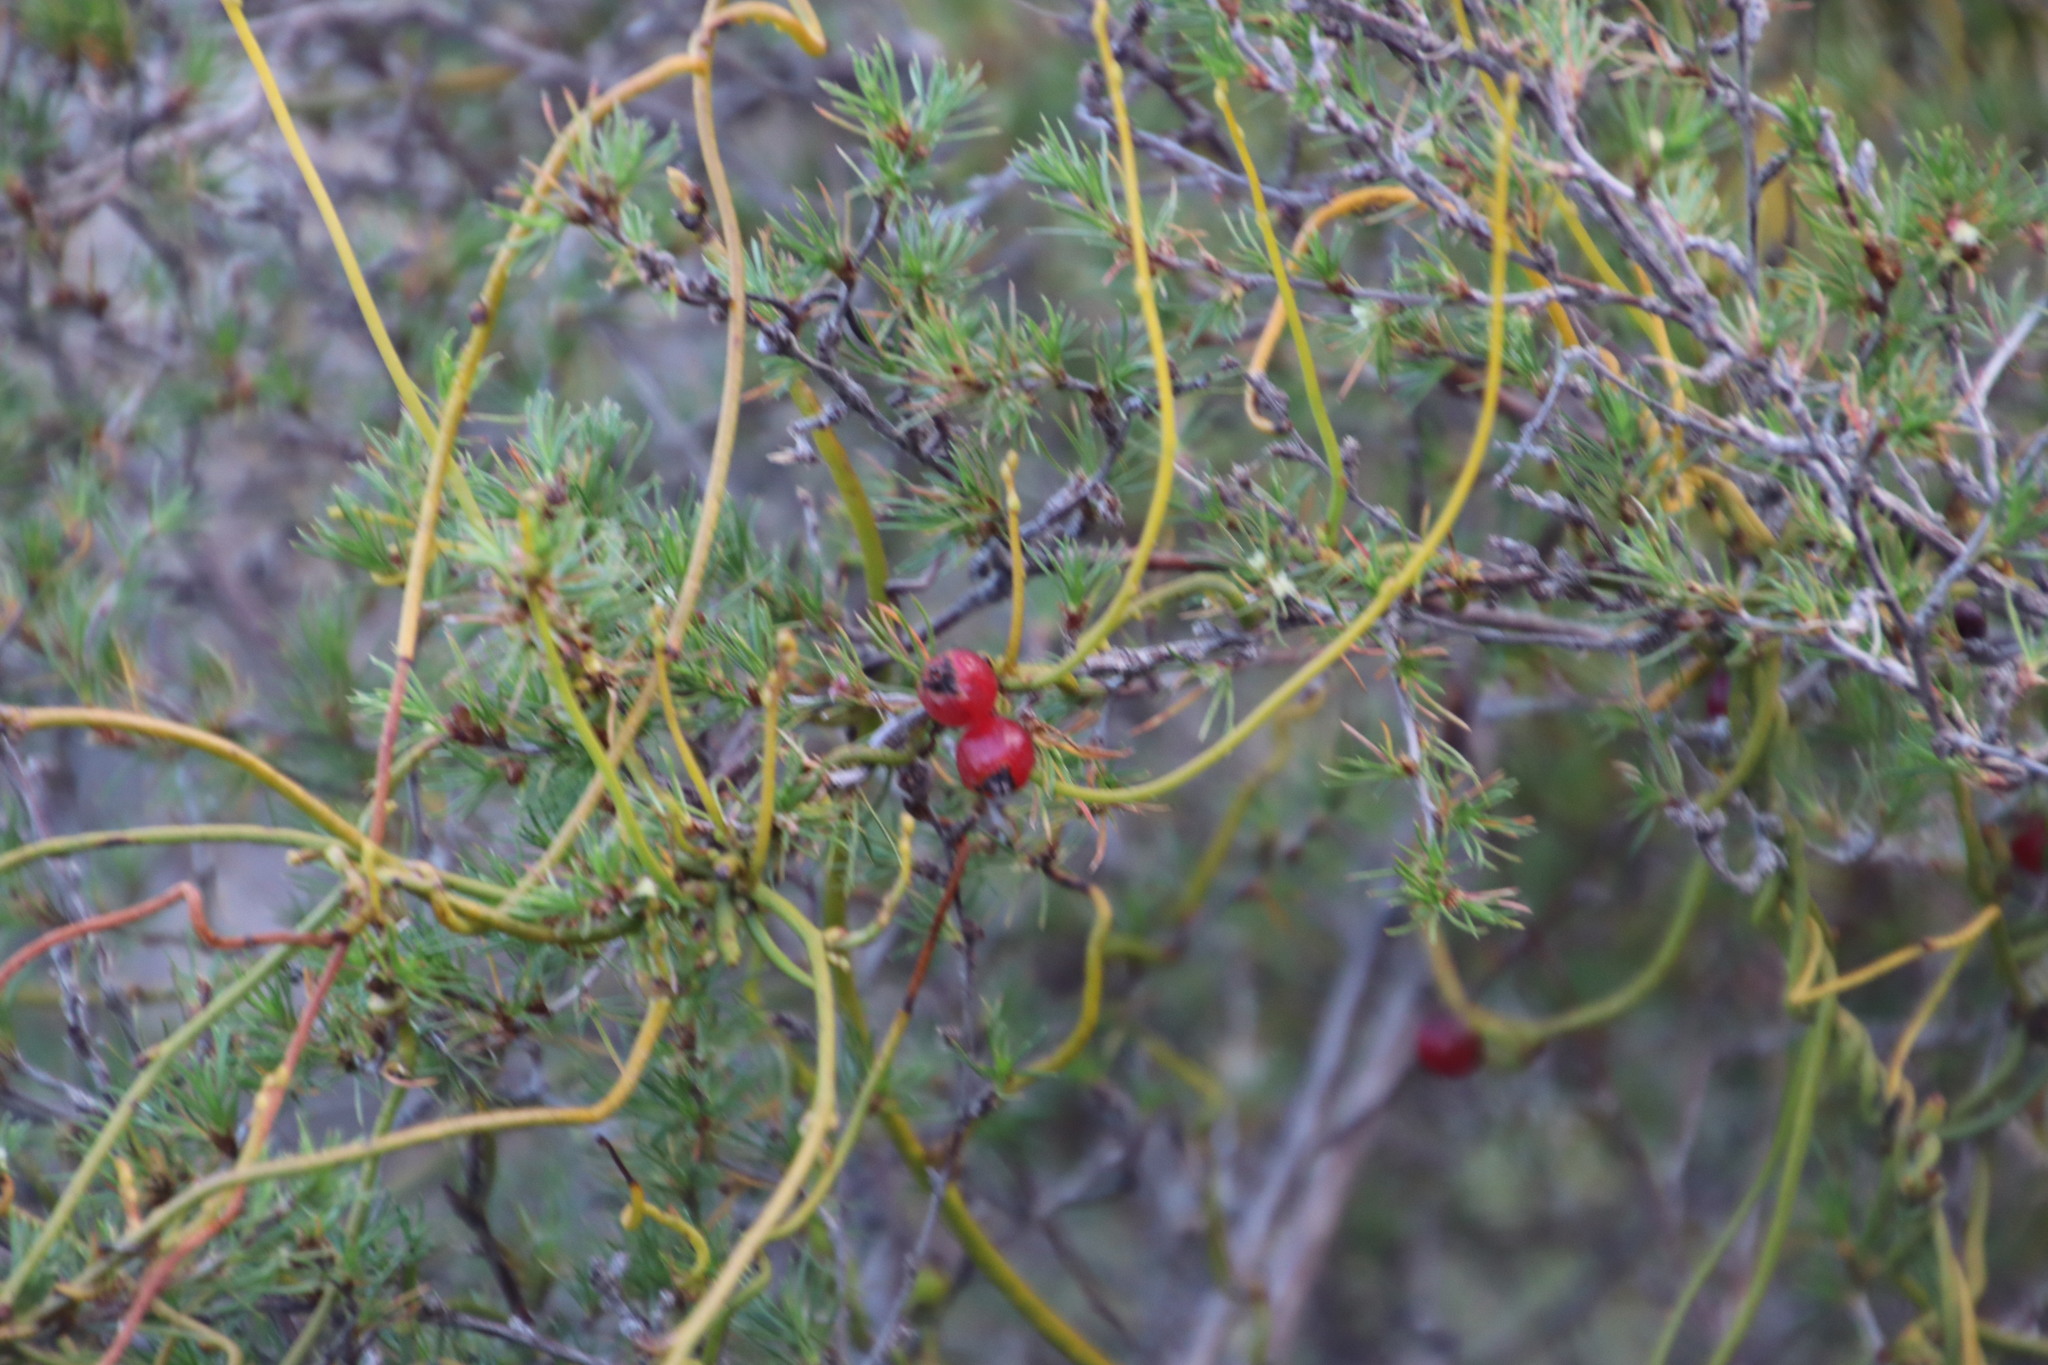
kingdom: Plantae
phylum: Tracheophyta
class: Magnoliopsida
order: Laurales
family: Lauraceae
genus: Cassytha
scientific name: Cassytha ciliolata
